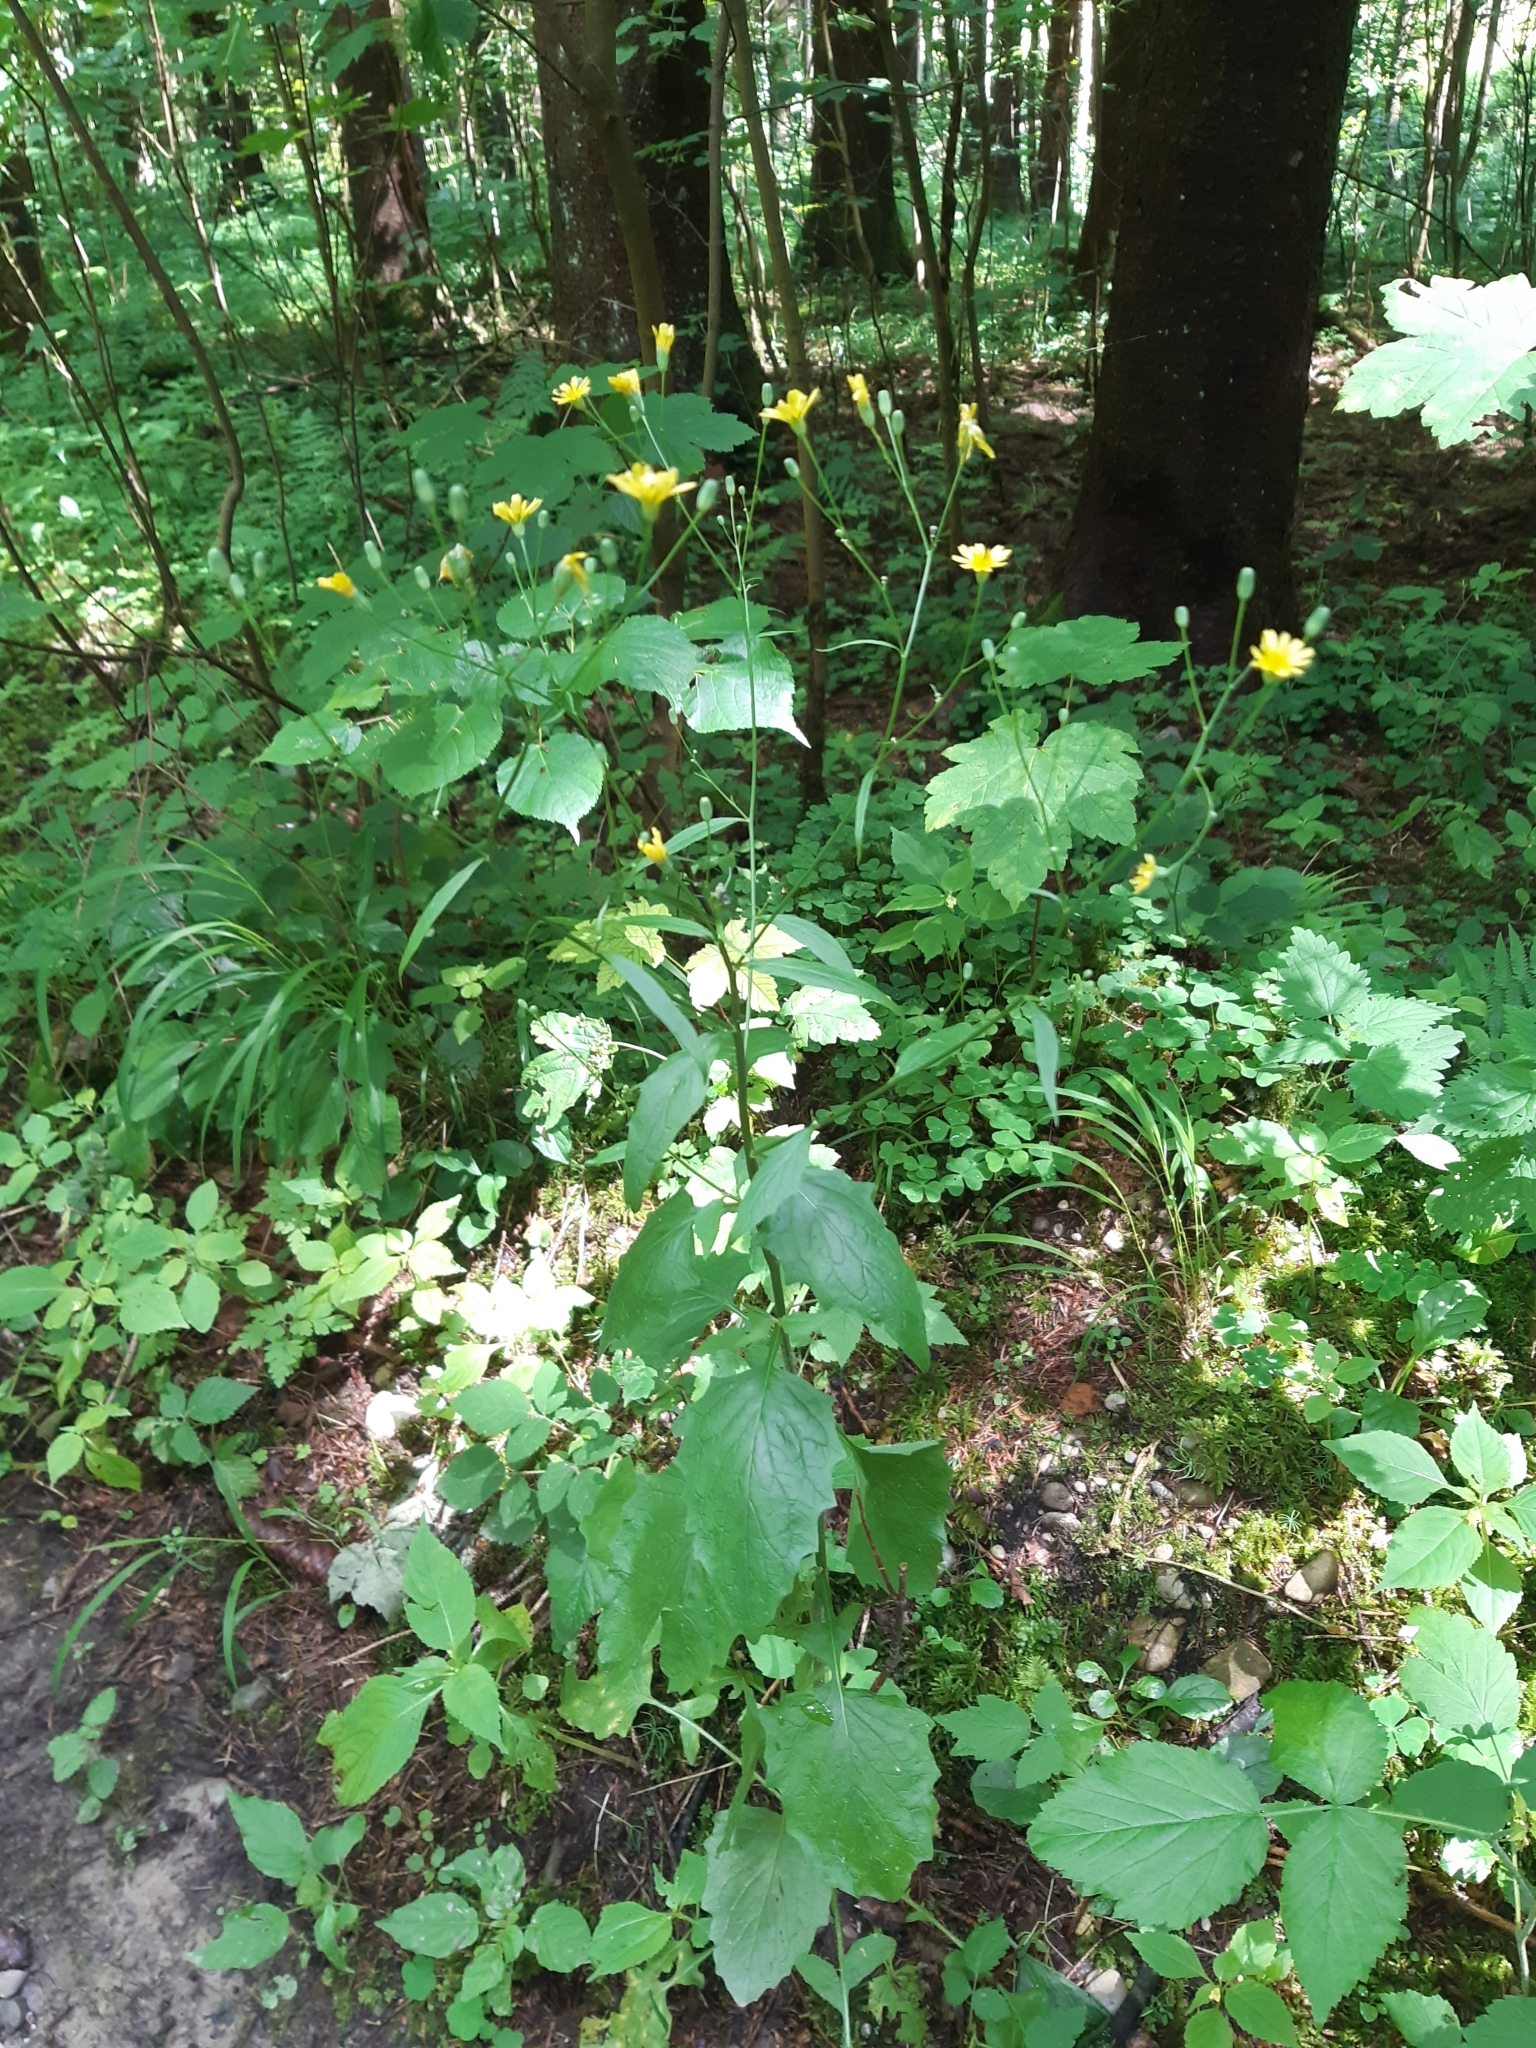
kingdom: Plantae
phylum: Tracheophyta
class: Magnoliopsida
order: Asterales
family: Asteraceae
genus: Lapsana
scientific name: Lapsana communis
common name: Nipplewort
